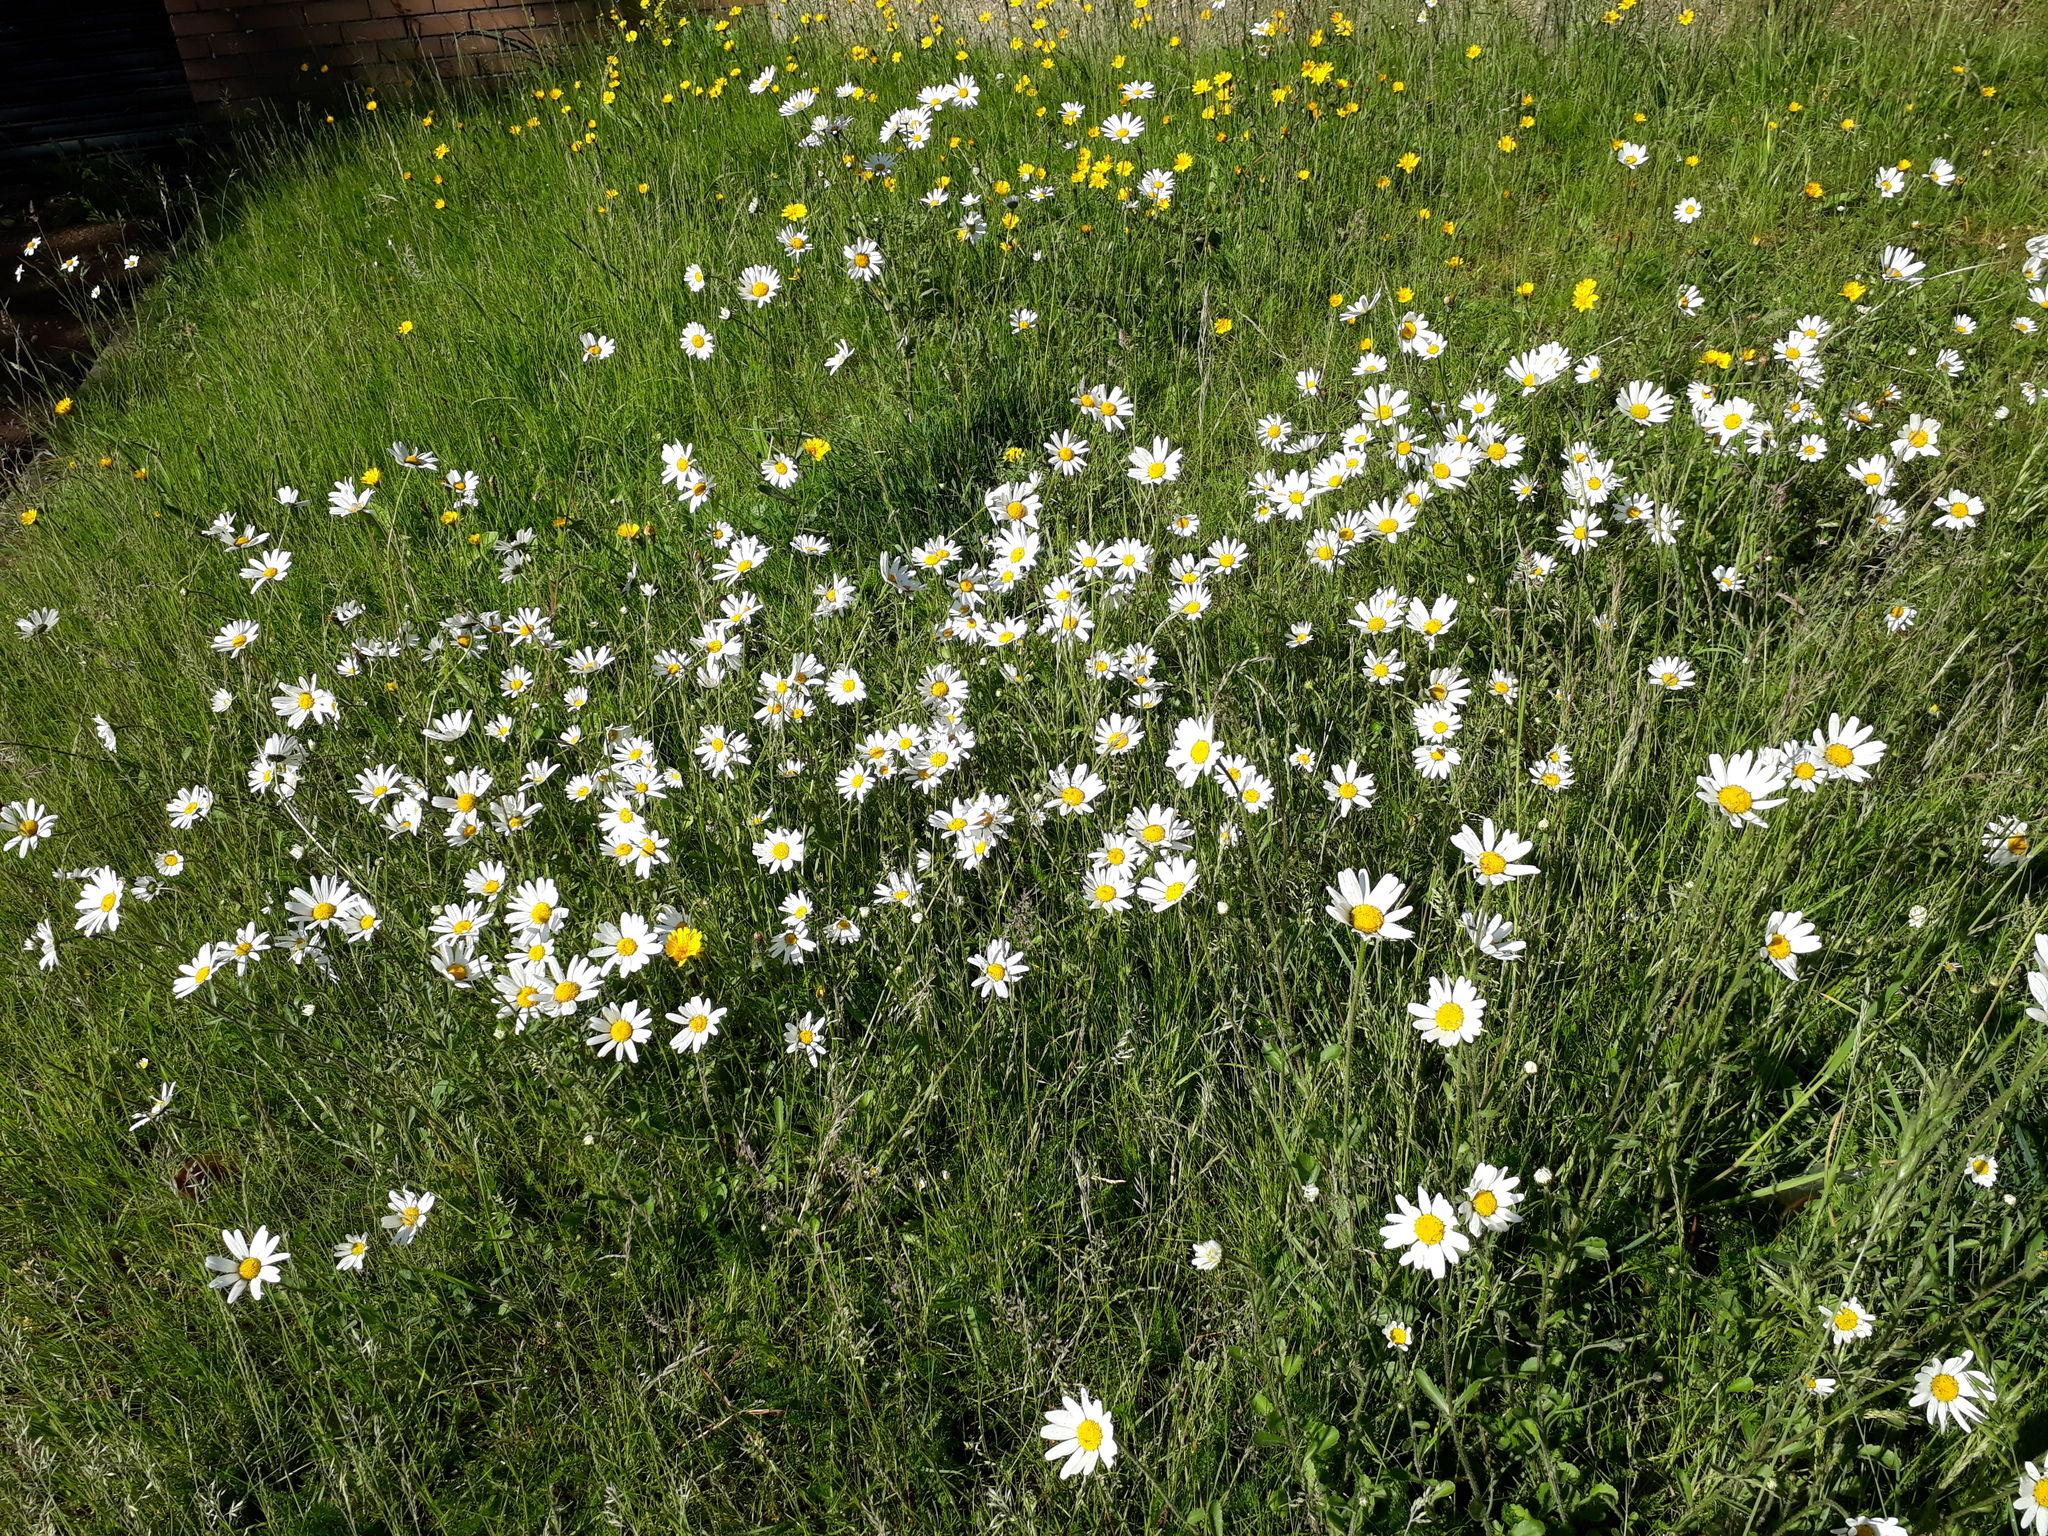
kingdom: Plantae
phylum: Tracheophyta
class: Magnoliopsida
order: Asterales
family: Asteraceae
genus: Leucanthemum
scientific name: Leucanthemum vulgare
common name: Oxeye daisy
